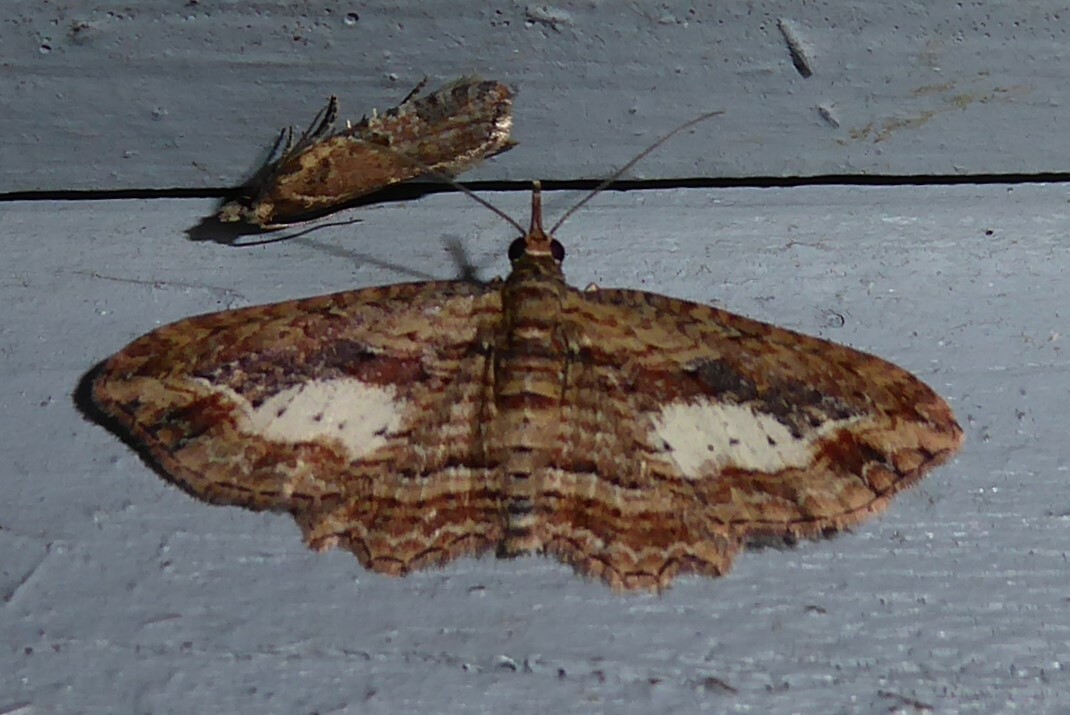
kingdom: Animalia
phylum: Arthropoda
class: Insecta
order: Lepidoptera
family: Geometridae
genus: Chloroclystis
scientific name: Chloroclystis filata
